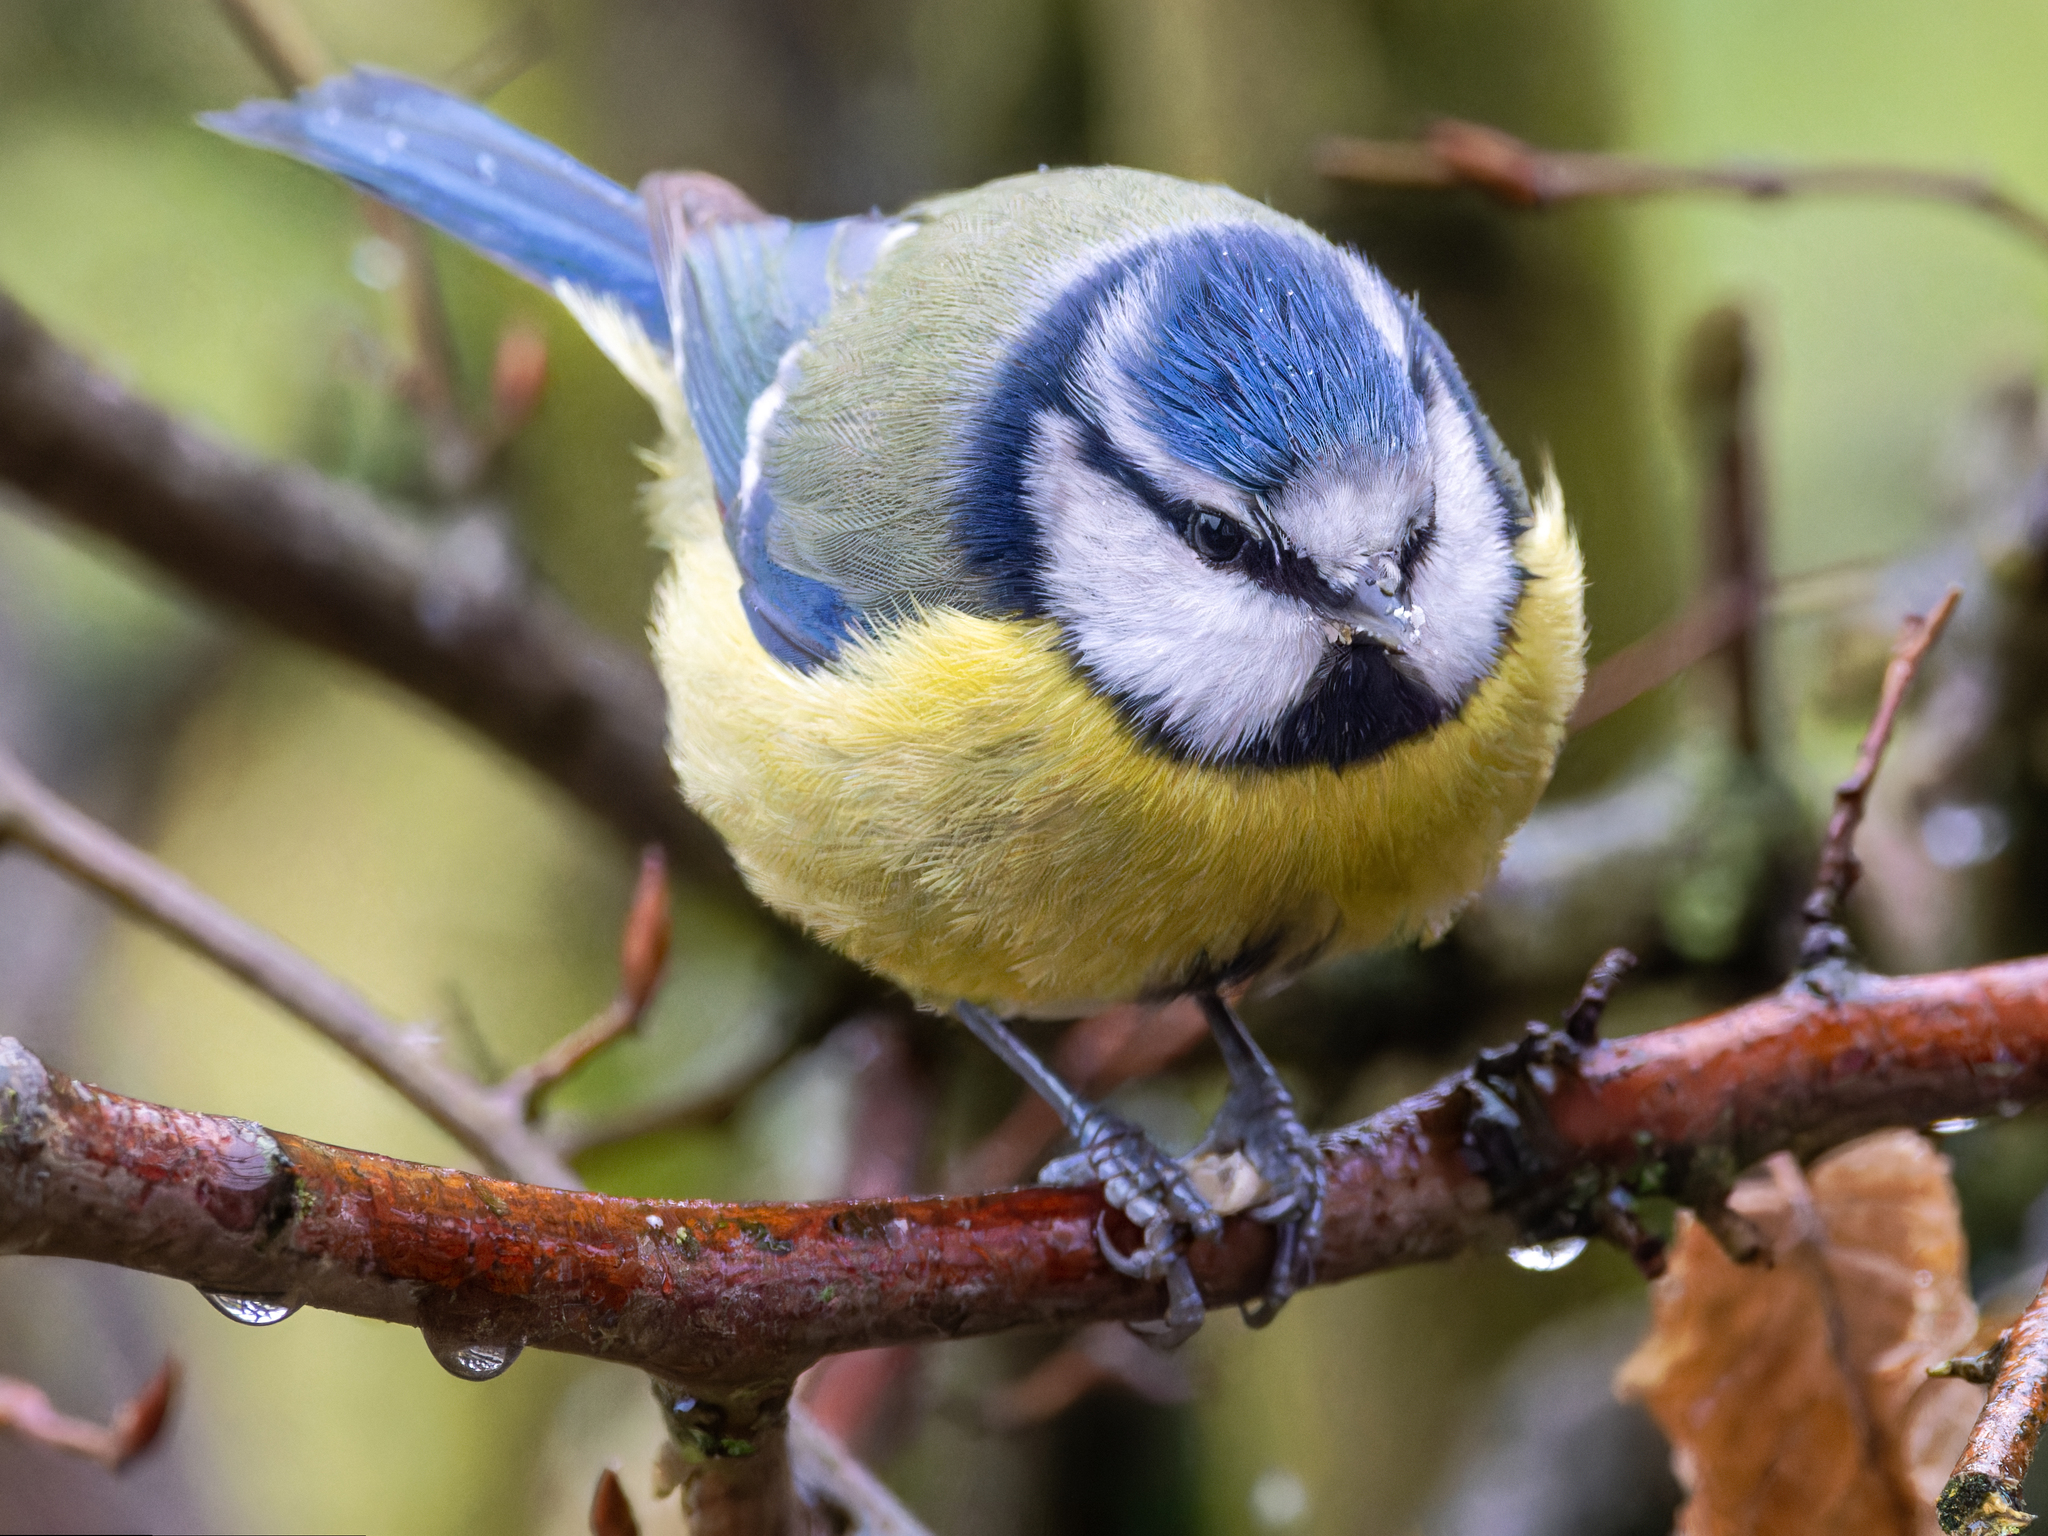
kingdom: Animalia
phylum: Chordata
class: Aves
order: Passeriformes
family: Paridae
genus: Cyanistes
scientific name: Cyanistes caeruleus
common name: Eurasian blue tit
